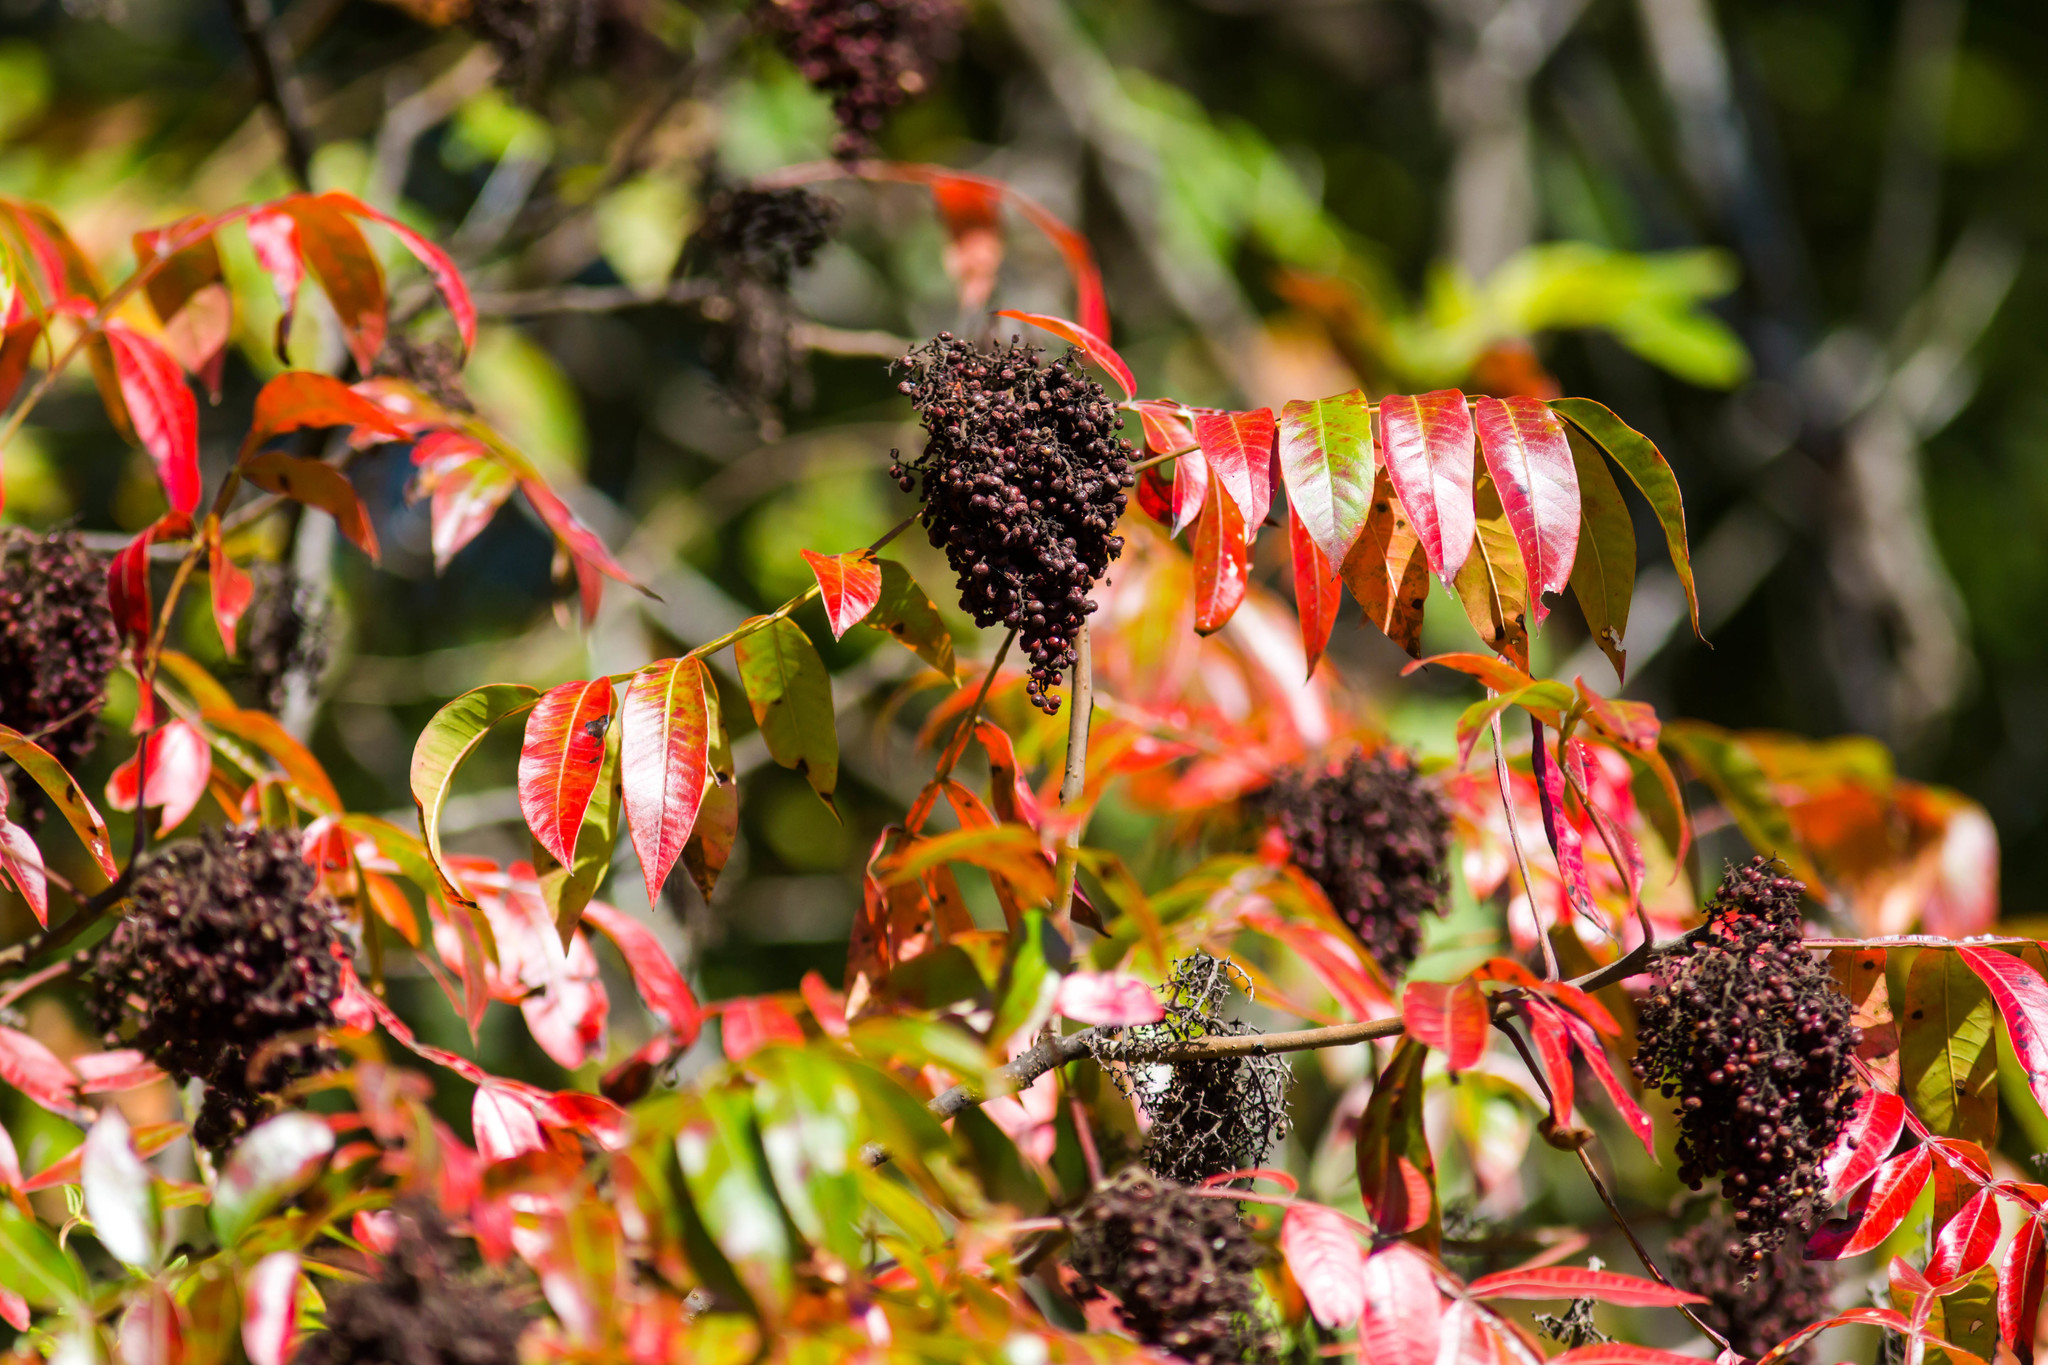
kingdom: Plantae
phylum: Tracheophyta
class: Magnoliopsida
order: Sapindales
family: Anacardiaceae
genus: Rhus
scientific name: Rhus copallina
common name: Shining sumac
